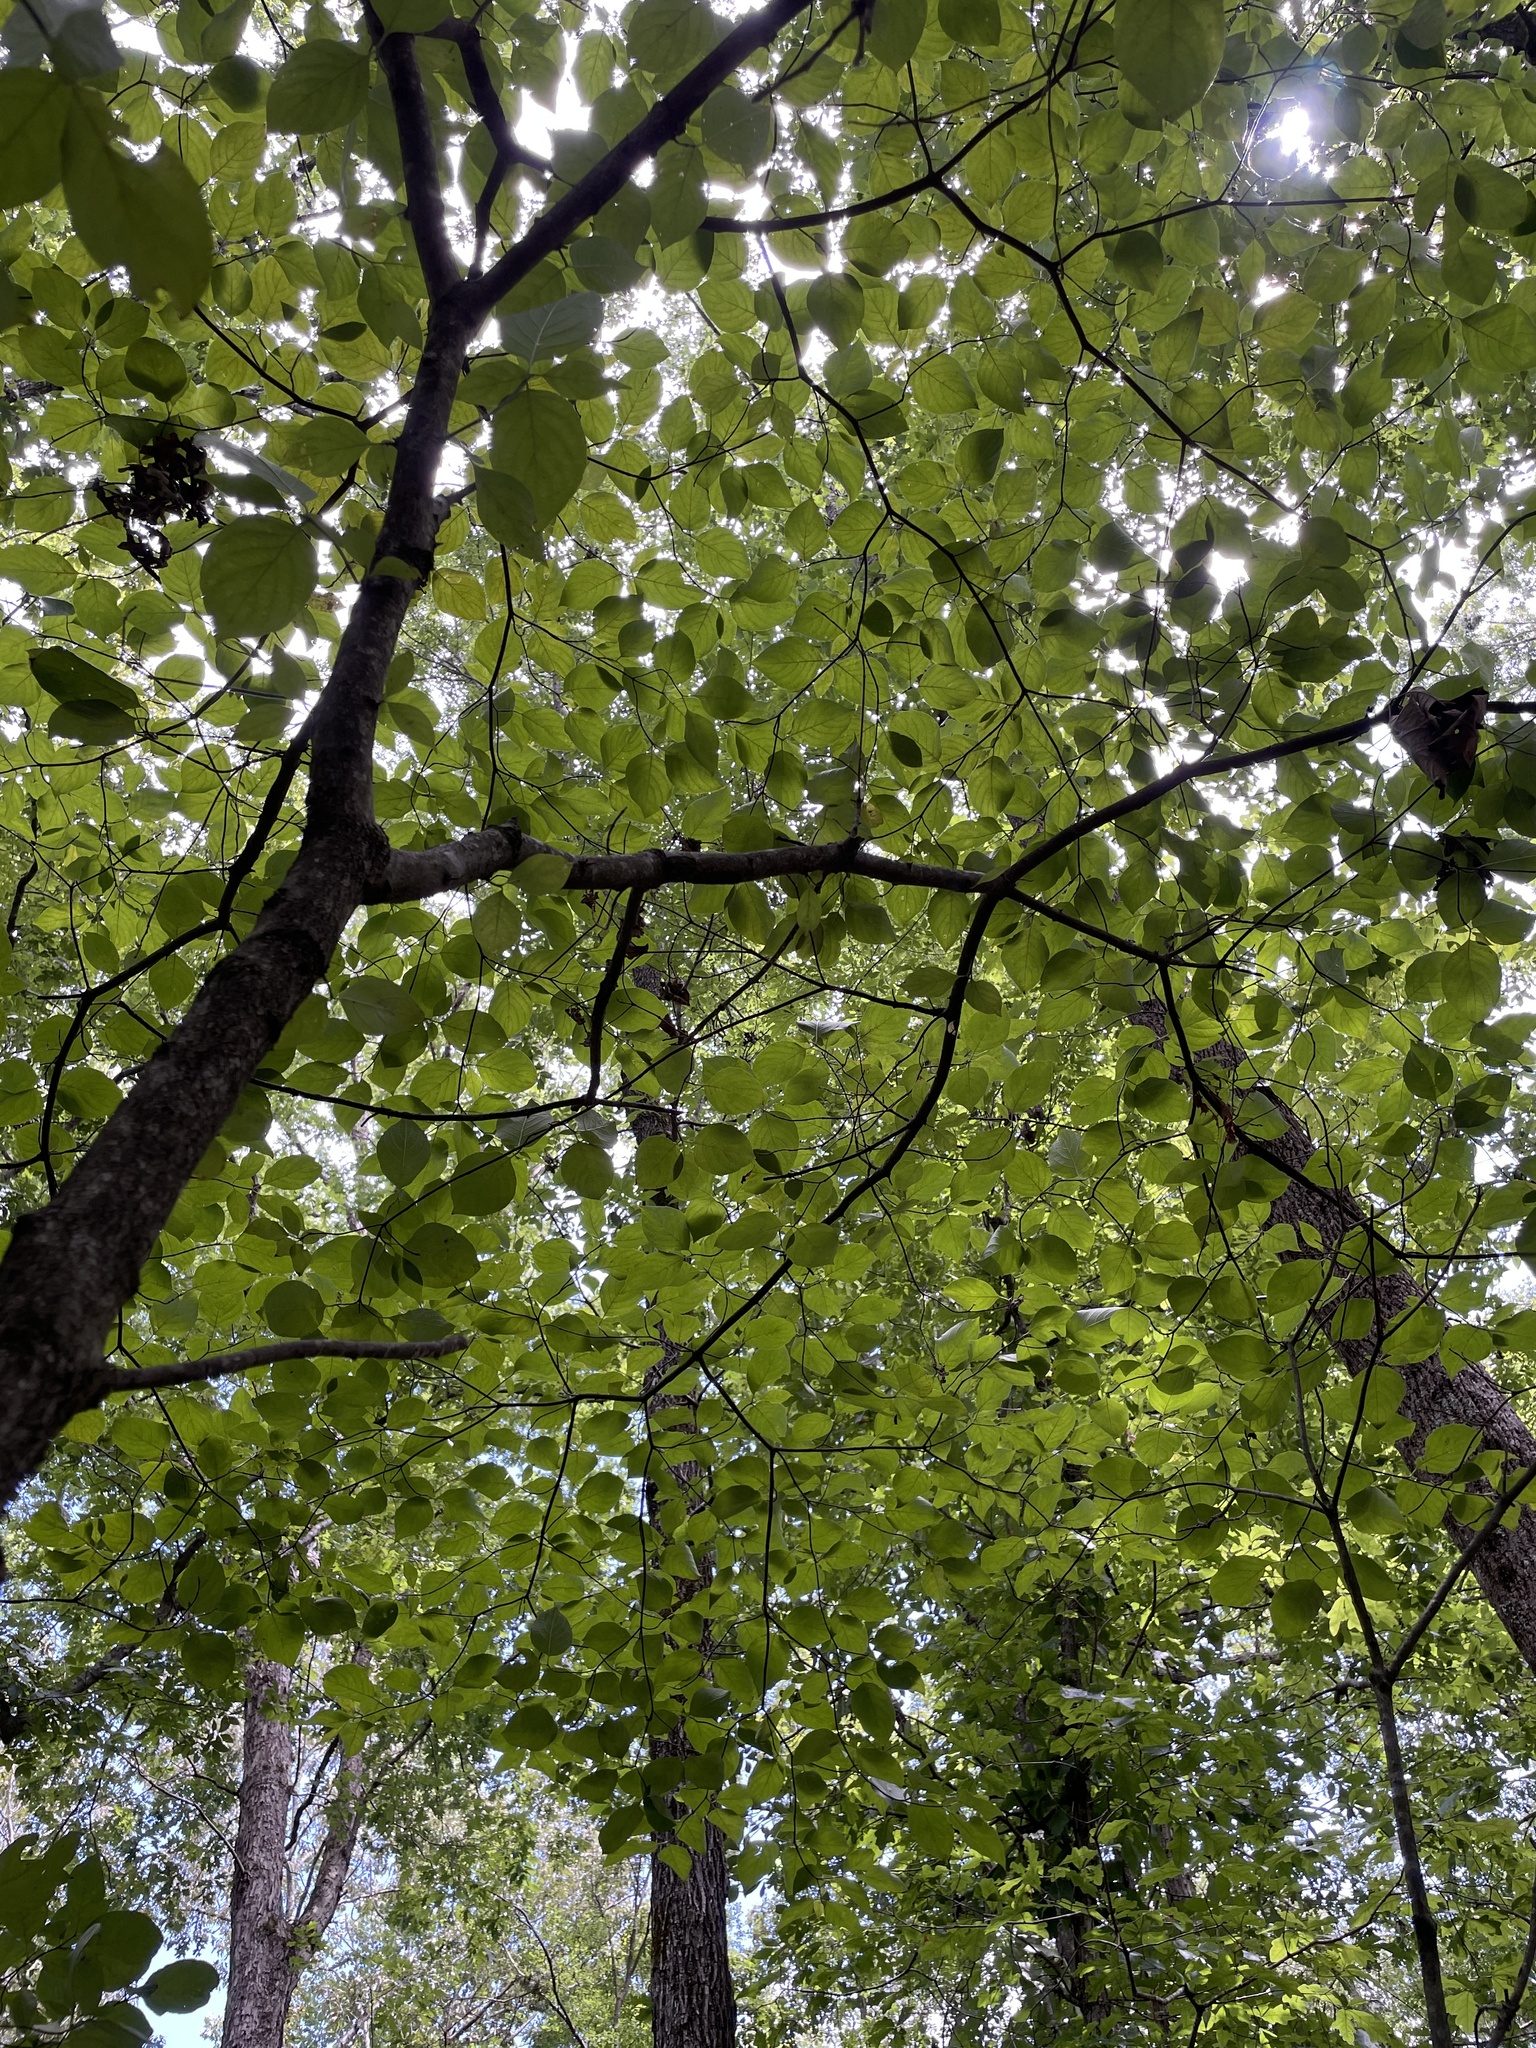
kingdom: Plantae
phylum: Tracheophyta
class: Magnoliopsida
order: Cornales
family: Cornaceae
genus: Cornus
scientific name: Cornus florida
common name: Flowering dogwood
